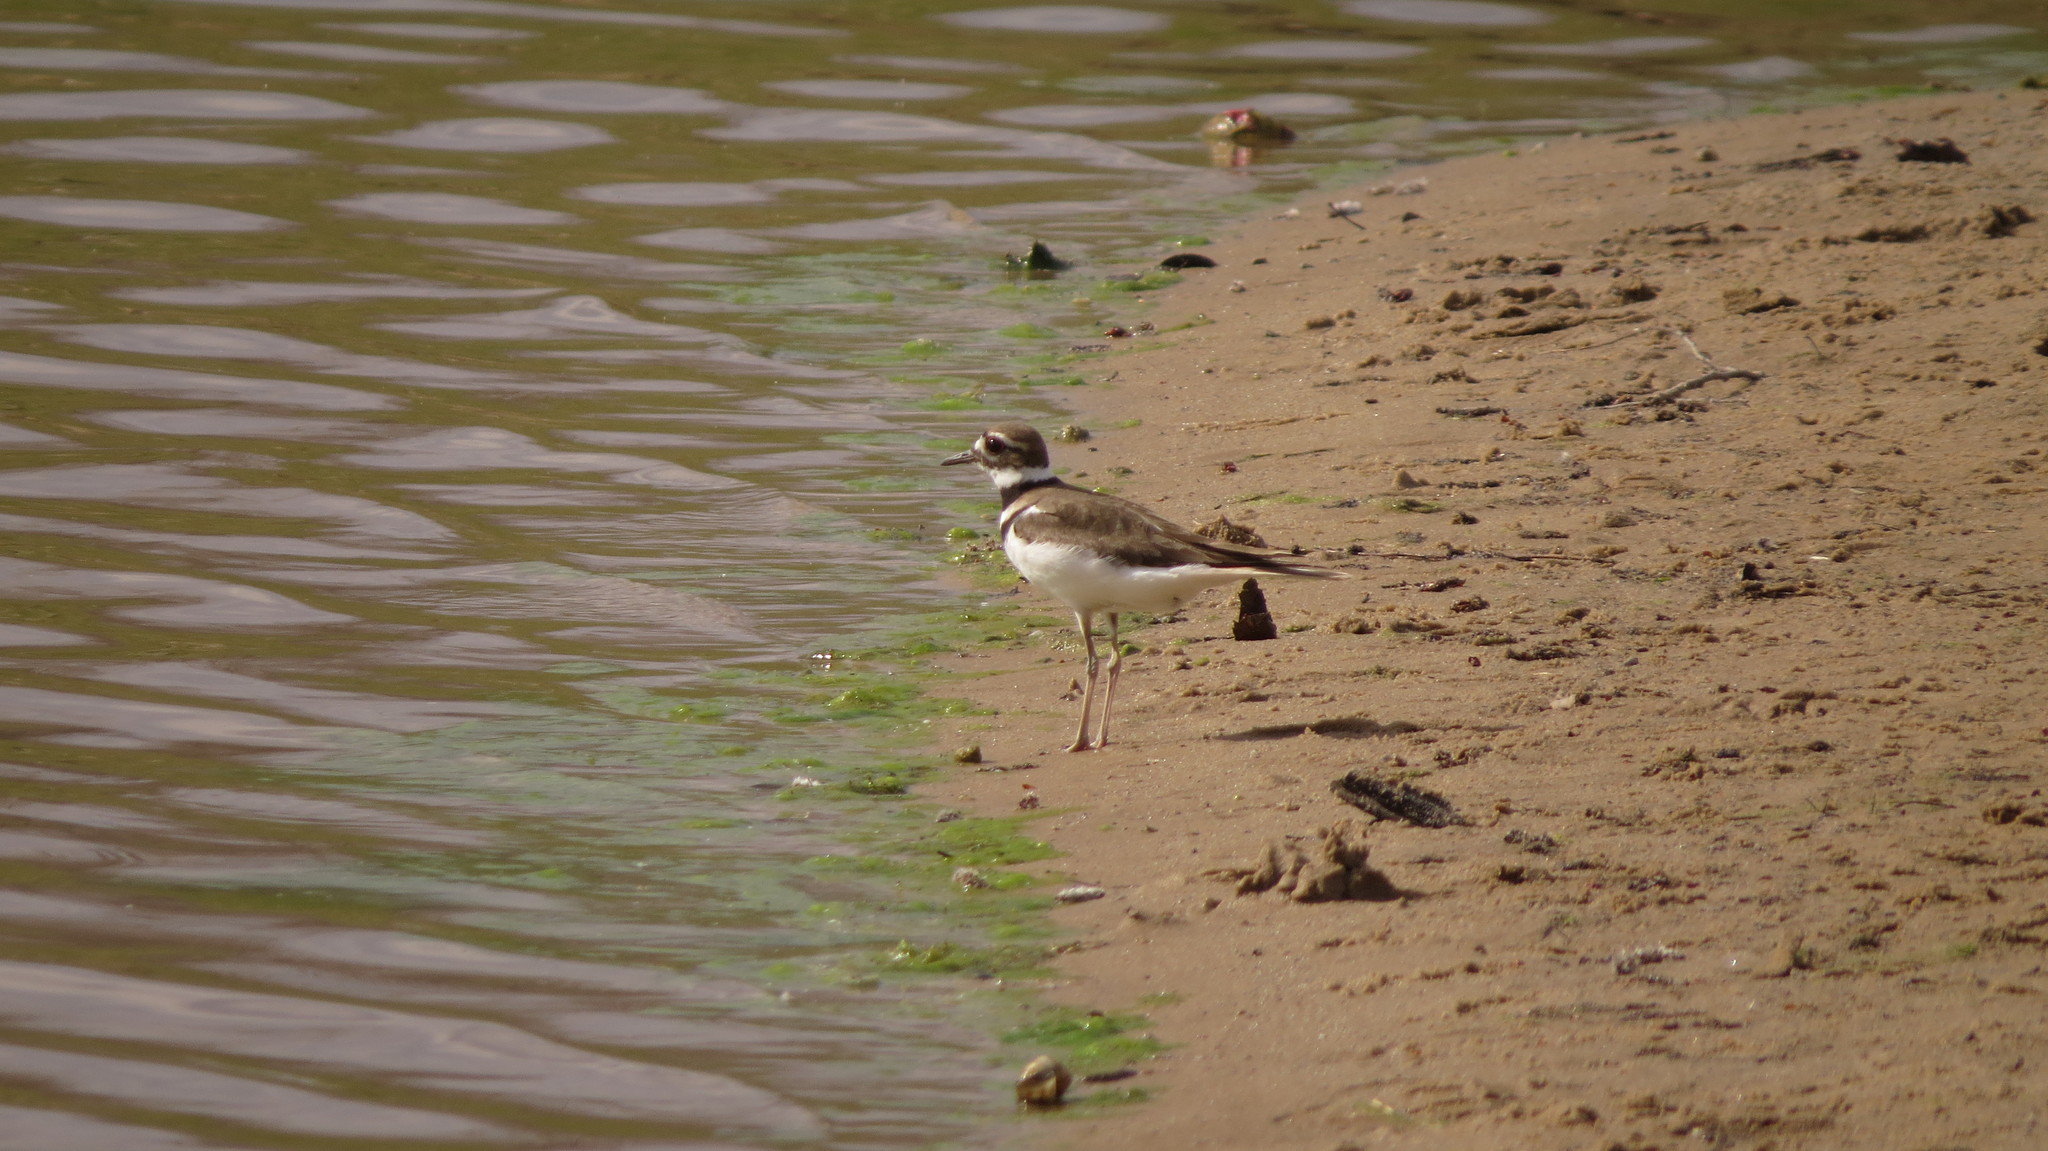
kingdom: Animalia
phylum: Chordata
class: Aves
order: Charadriiformes
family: Charadriidae
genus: Charadrius
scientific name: Charadrius vociferus
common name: Killdeer
